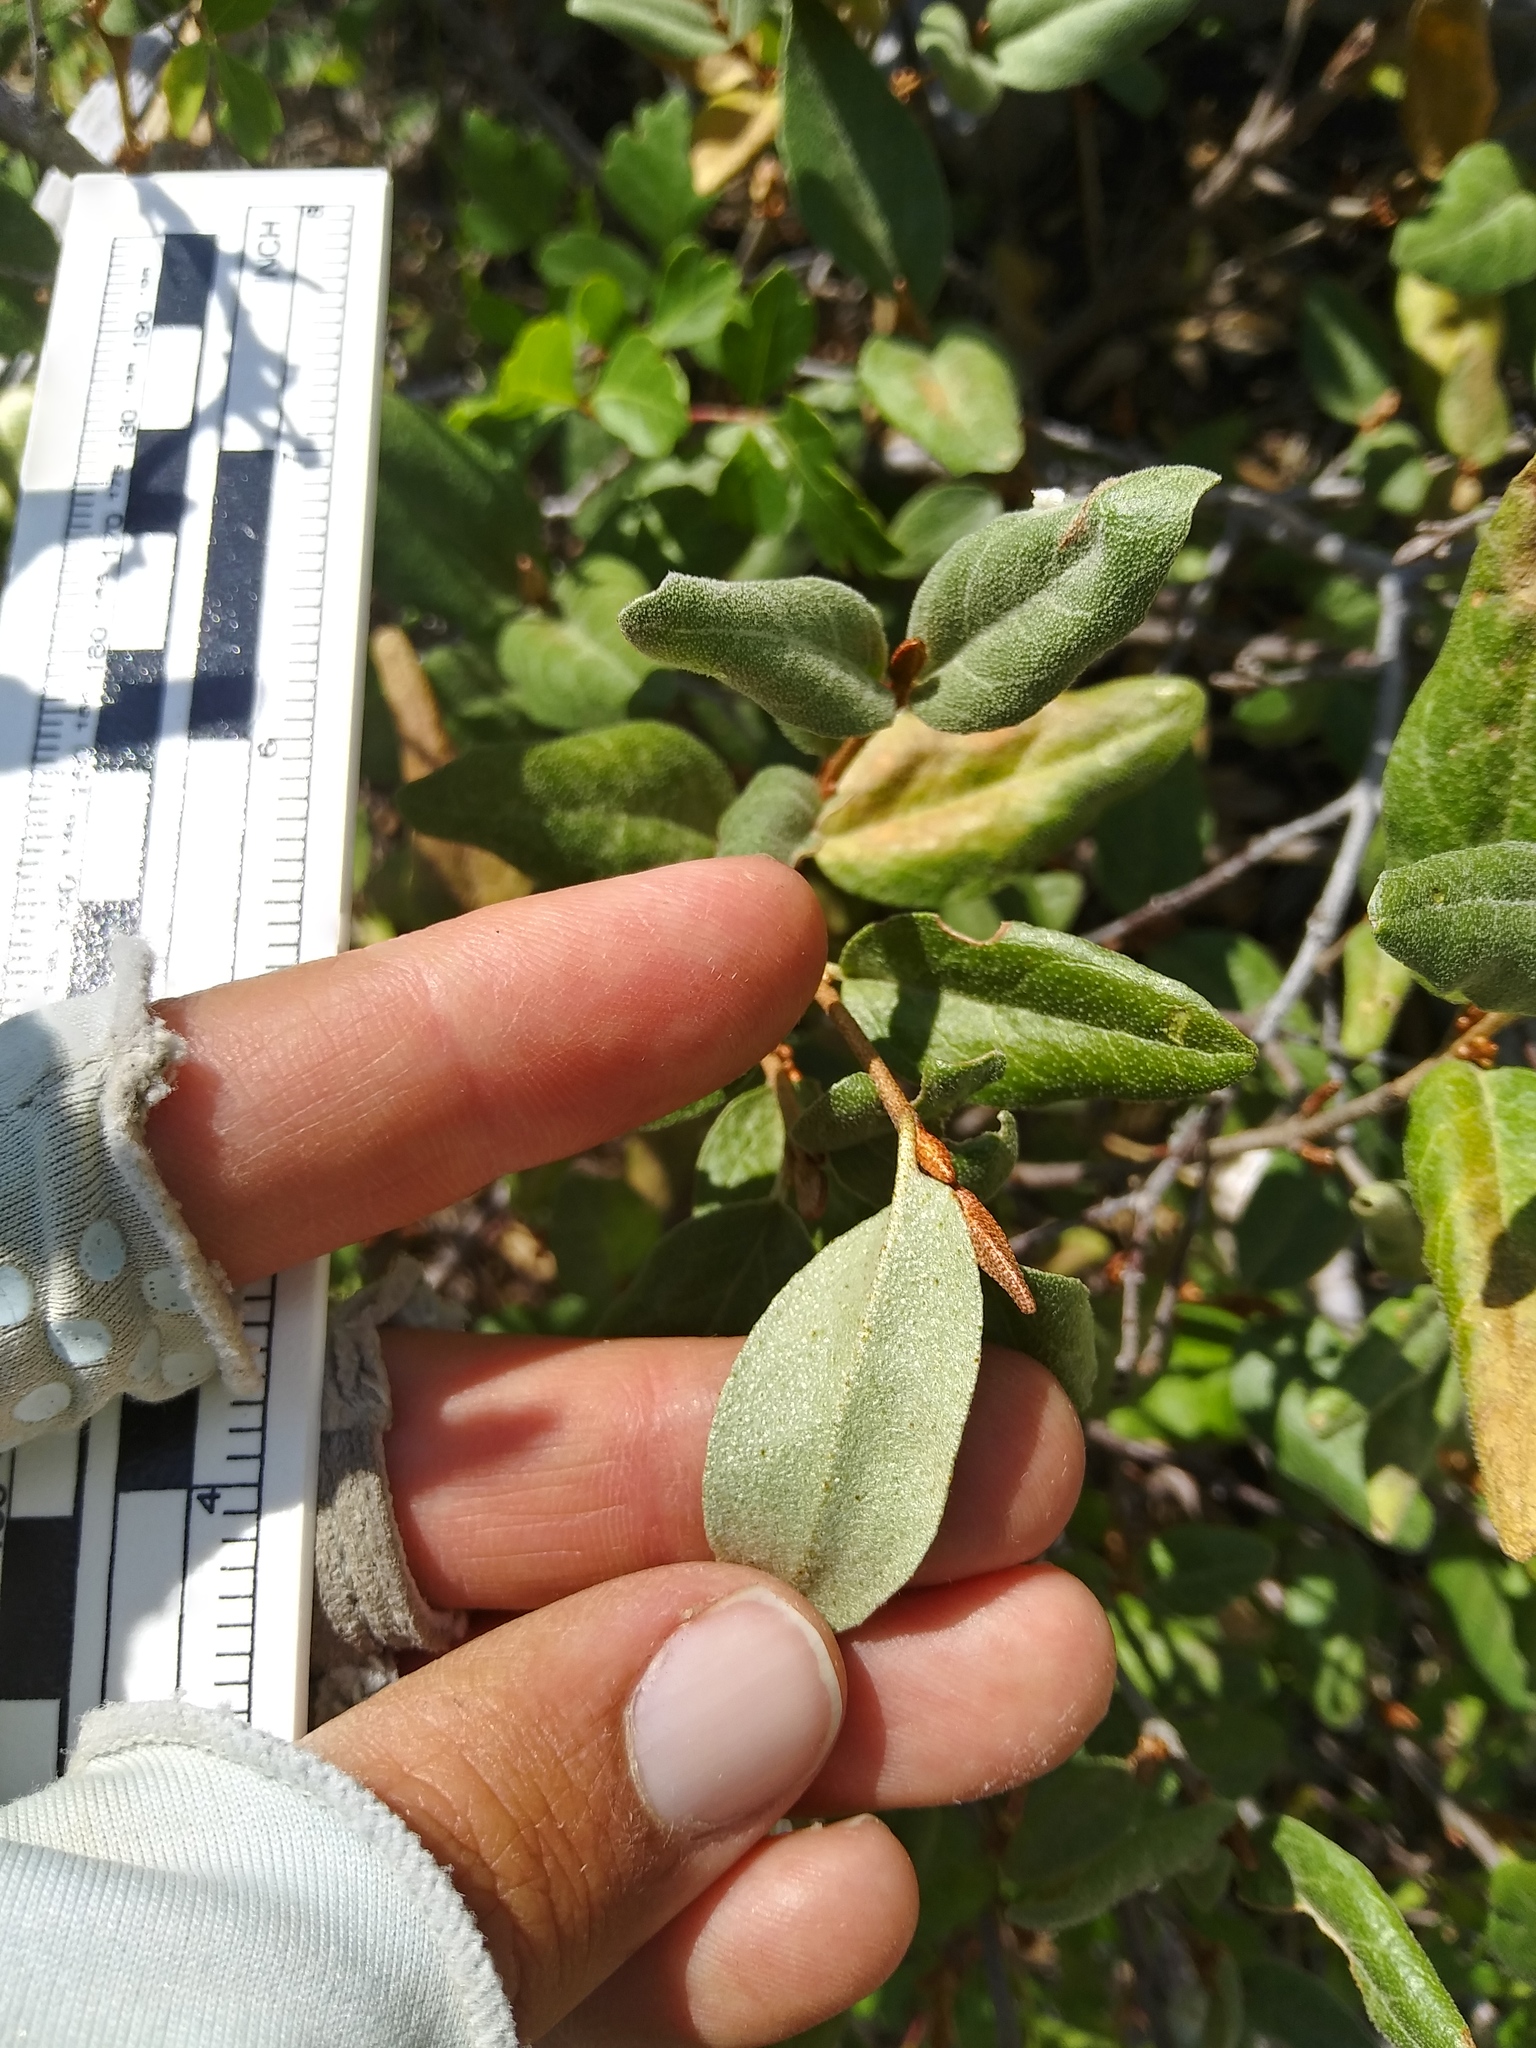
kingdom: Plantae
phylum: Tracheophyta
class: Magnoliopsida
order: Rosales
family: Elaeagnaceae
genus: Shepherdia
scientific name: Shepherdia canadensis
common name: Soapberry
